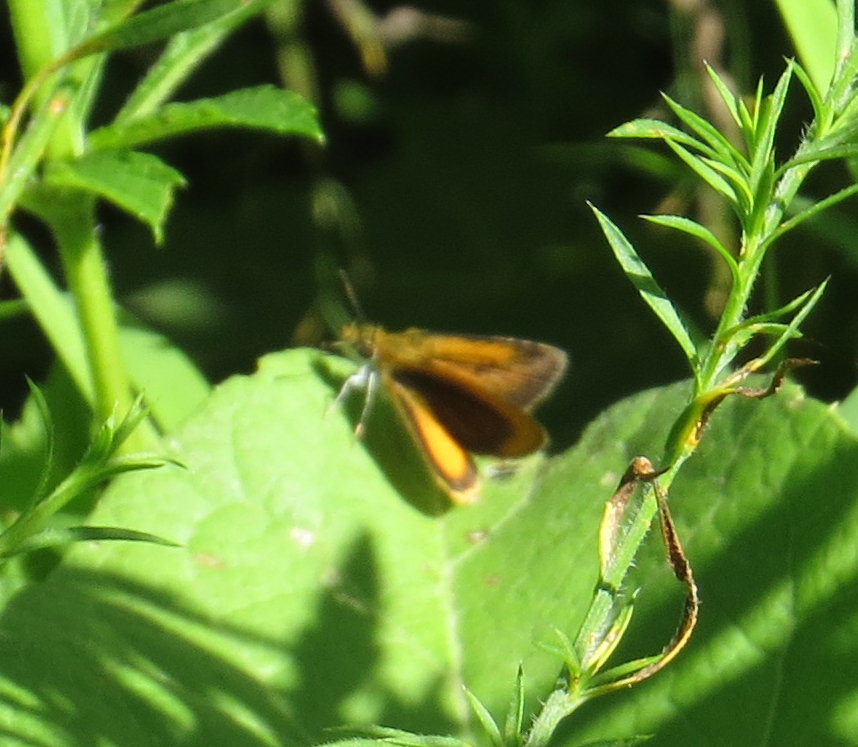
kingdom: Animalia
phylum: Arthropoda
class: Insecta
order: Lepidoptera
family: Hesperiidae
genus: Ancyloxypha
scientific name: Ancyloxypha numitor
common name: Least skipper
